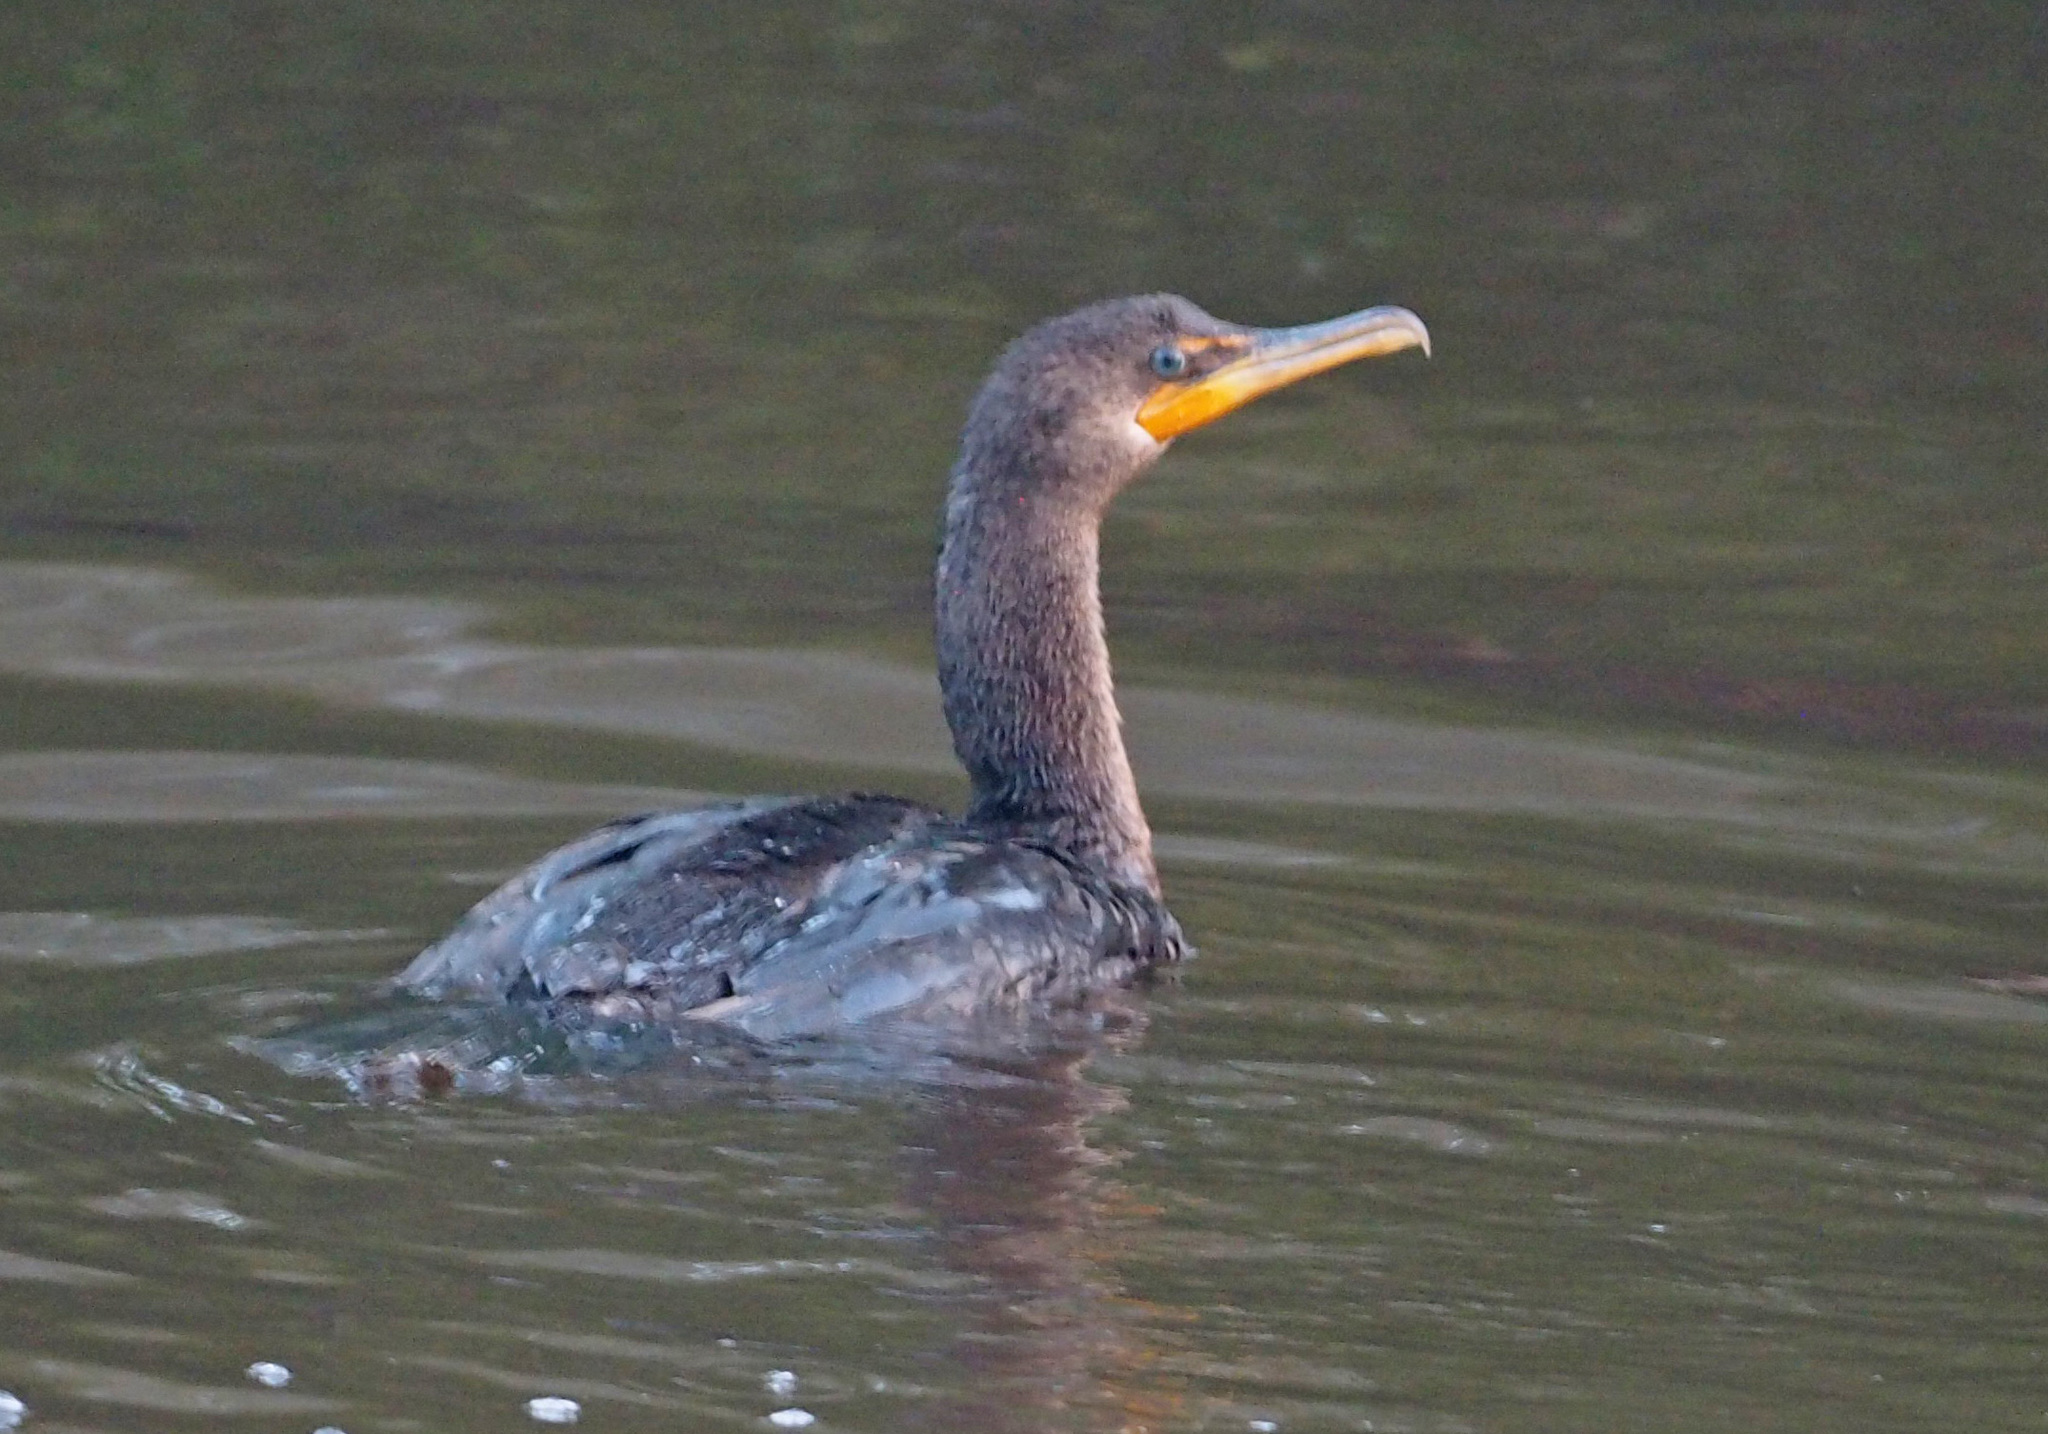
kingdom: Animalia
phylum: Chordata
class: Aves
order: Suliformes
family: Phalacrocoracidae
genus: Phalacrocorax
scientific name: Phalacrocorax auritus
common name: Double-crested cormorant
